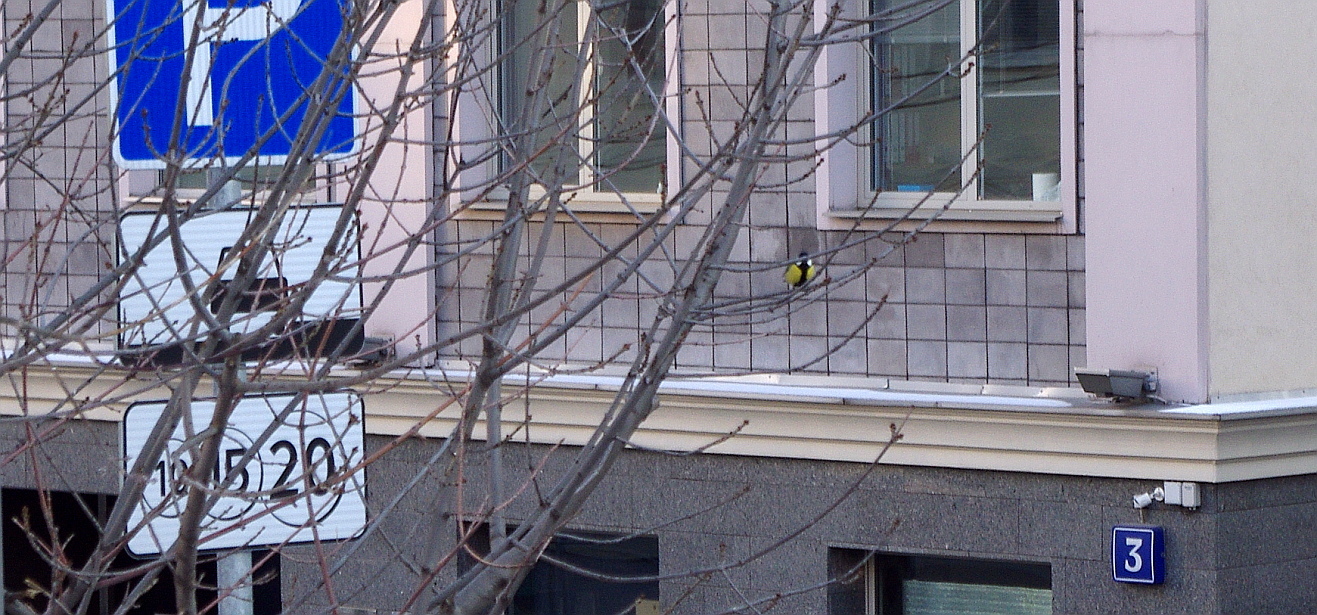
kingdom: Animalia
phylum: Chordata
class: Aves
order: Passeriformes
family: Paridae
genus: Parus
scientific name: Parus major
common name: Great tit
